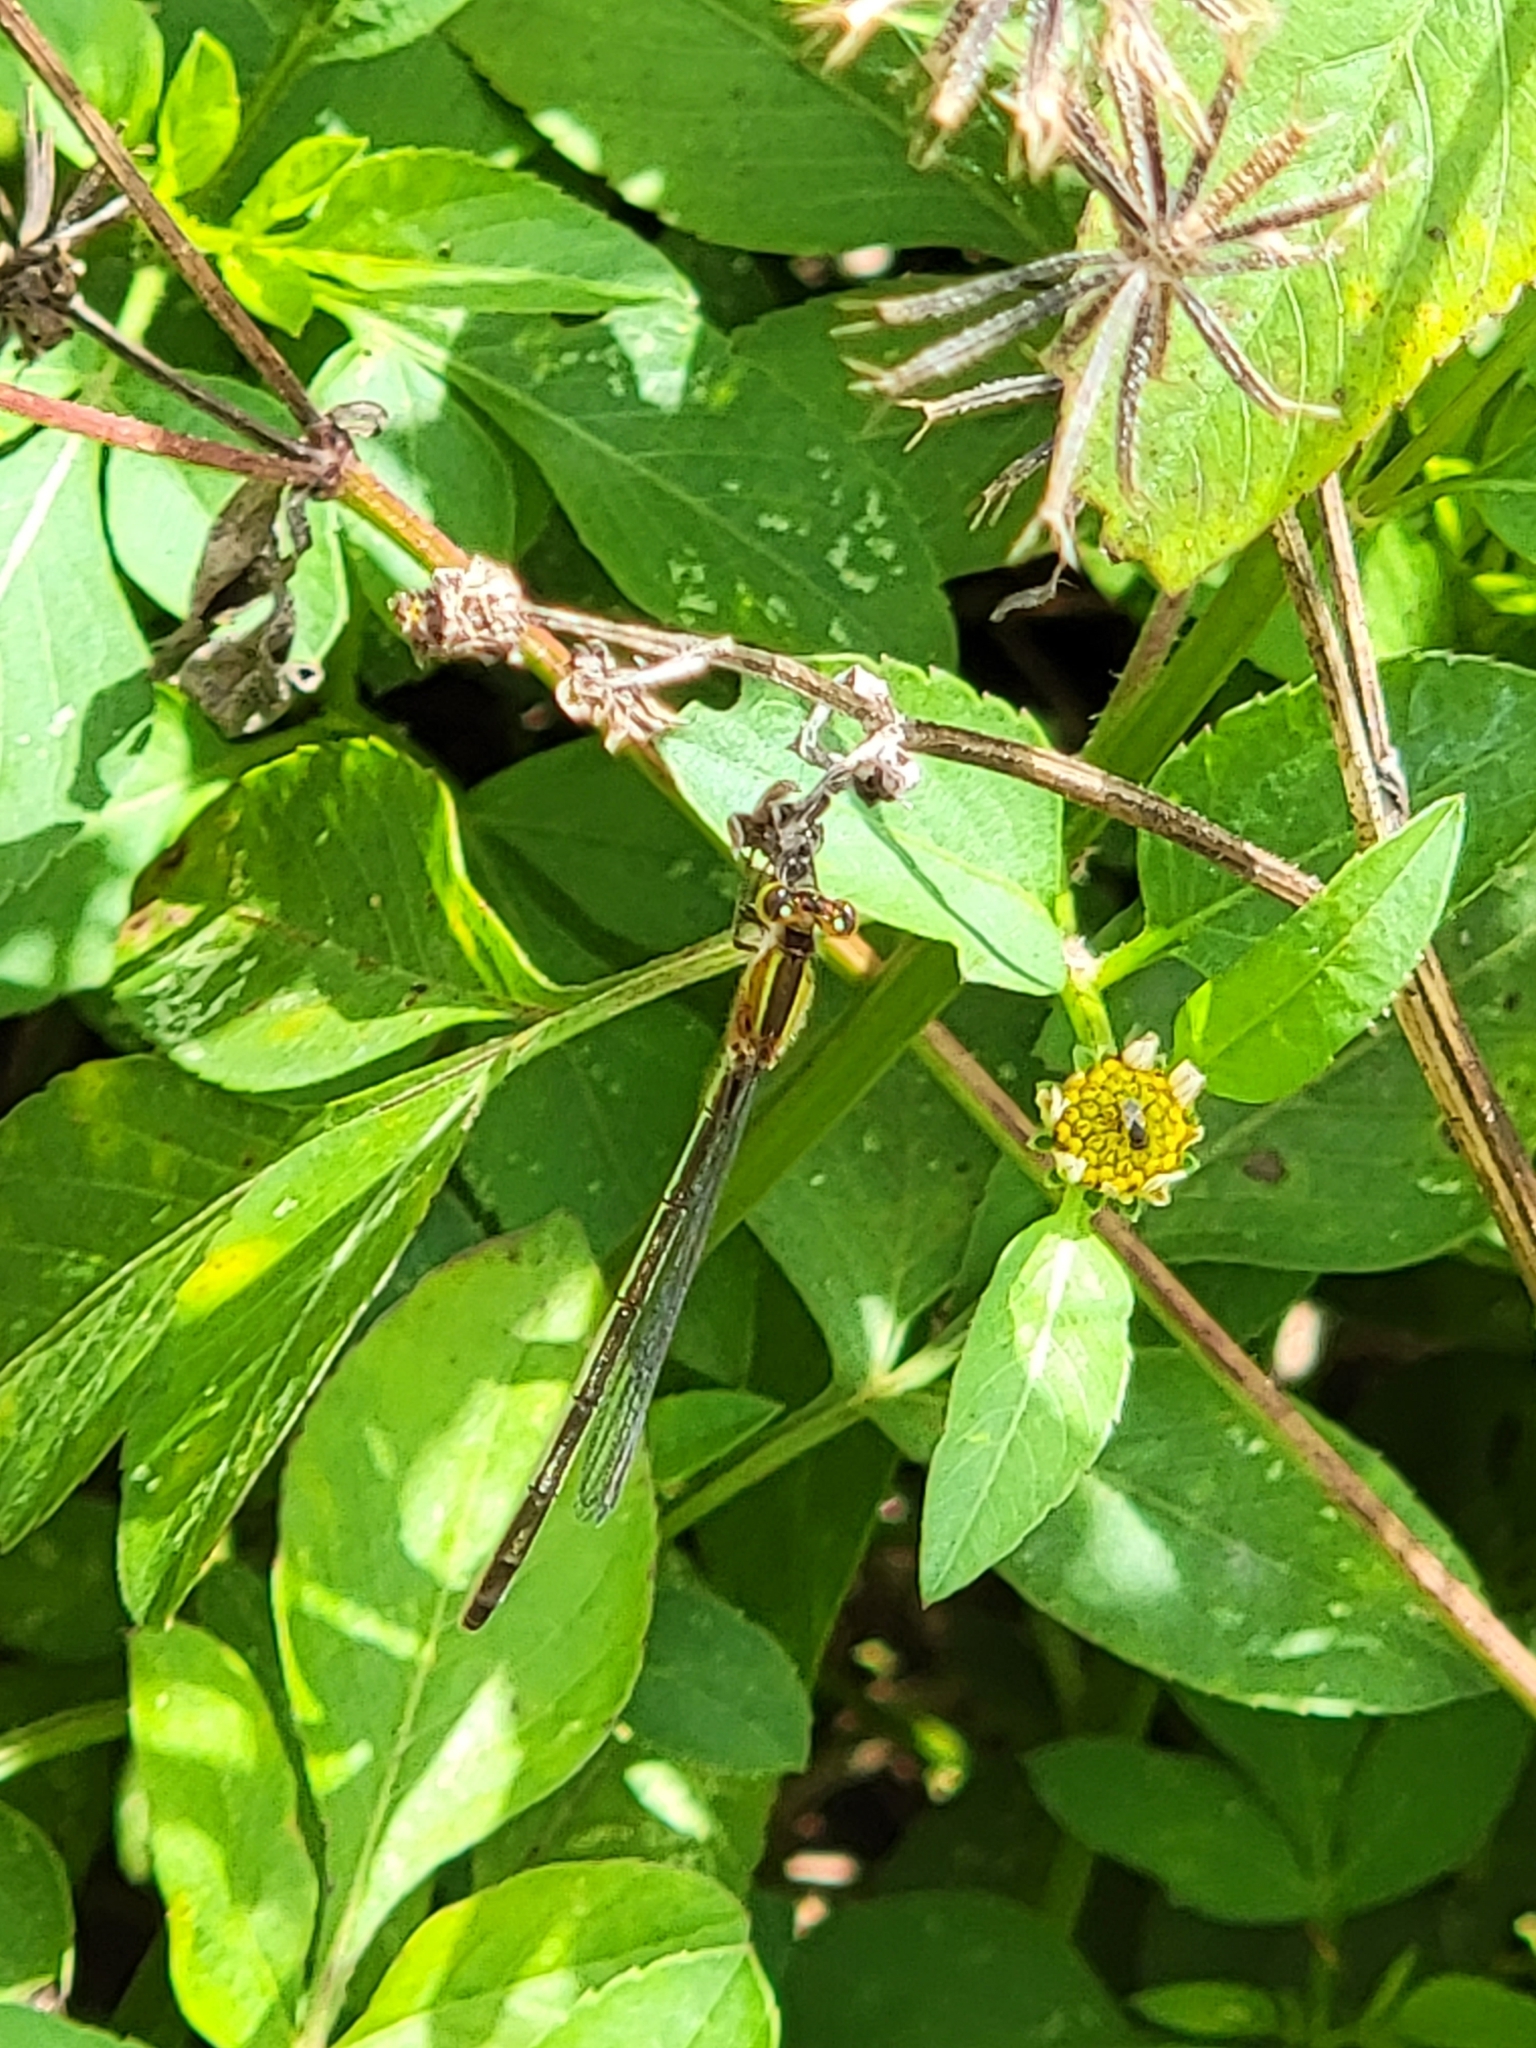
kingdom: Animalia
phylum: Arthropoda
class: Insecta
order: Odonata
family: Coenagrionidae
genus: Ischnura
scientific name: Ischnura ramburii
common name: Rambur's forktail
